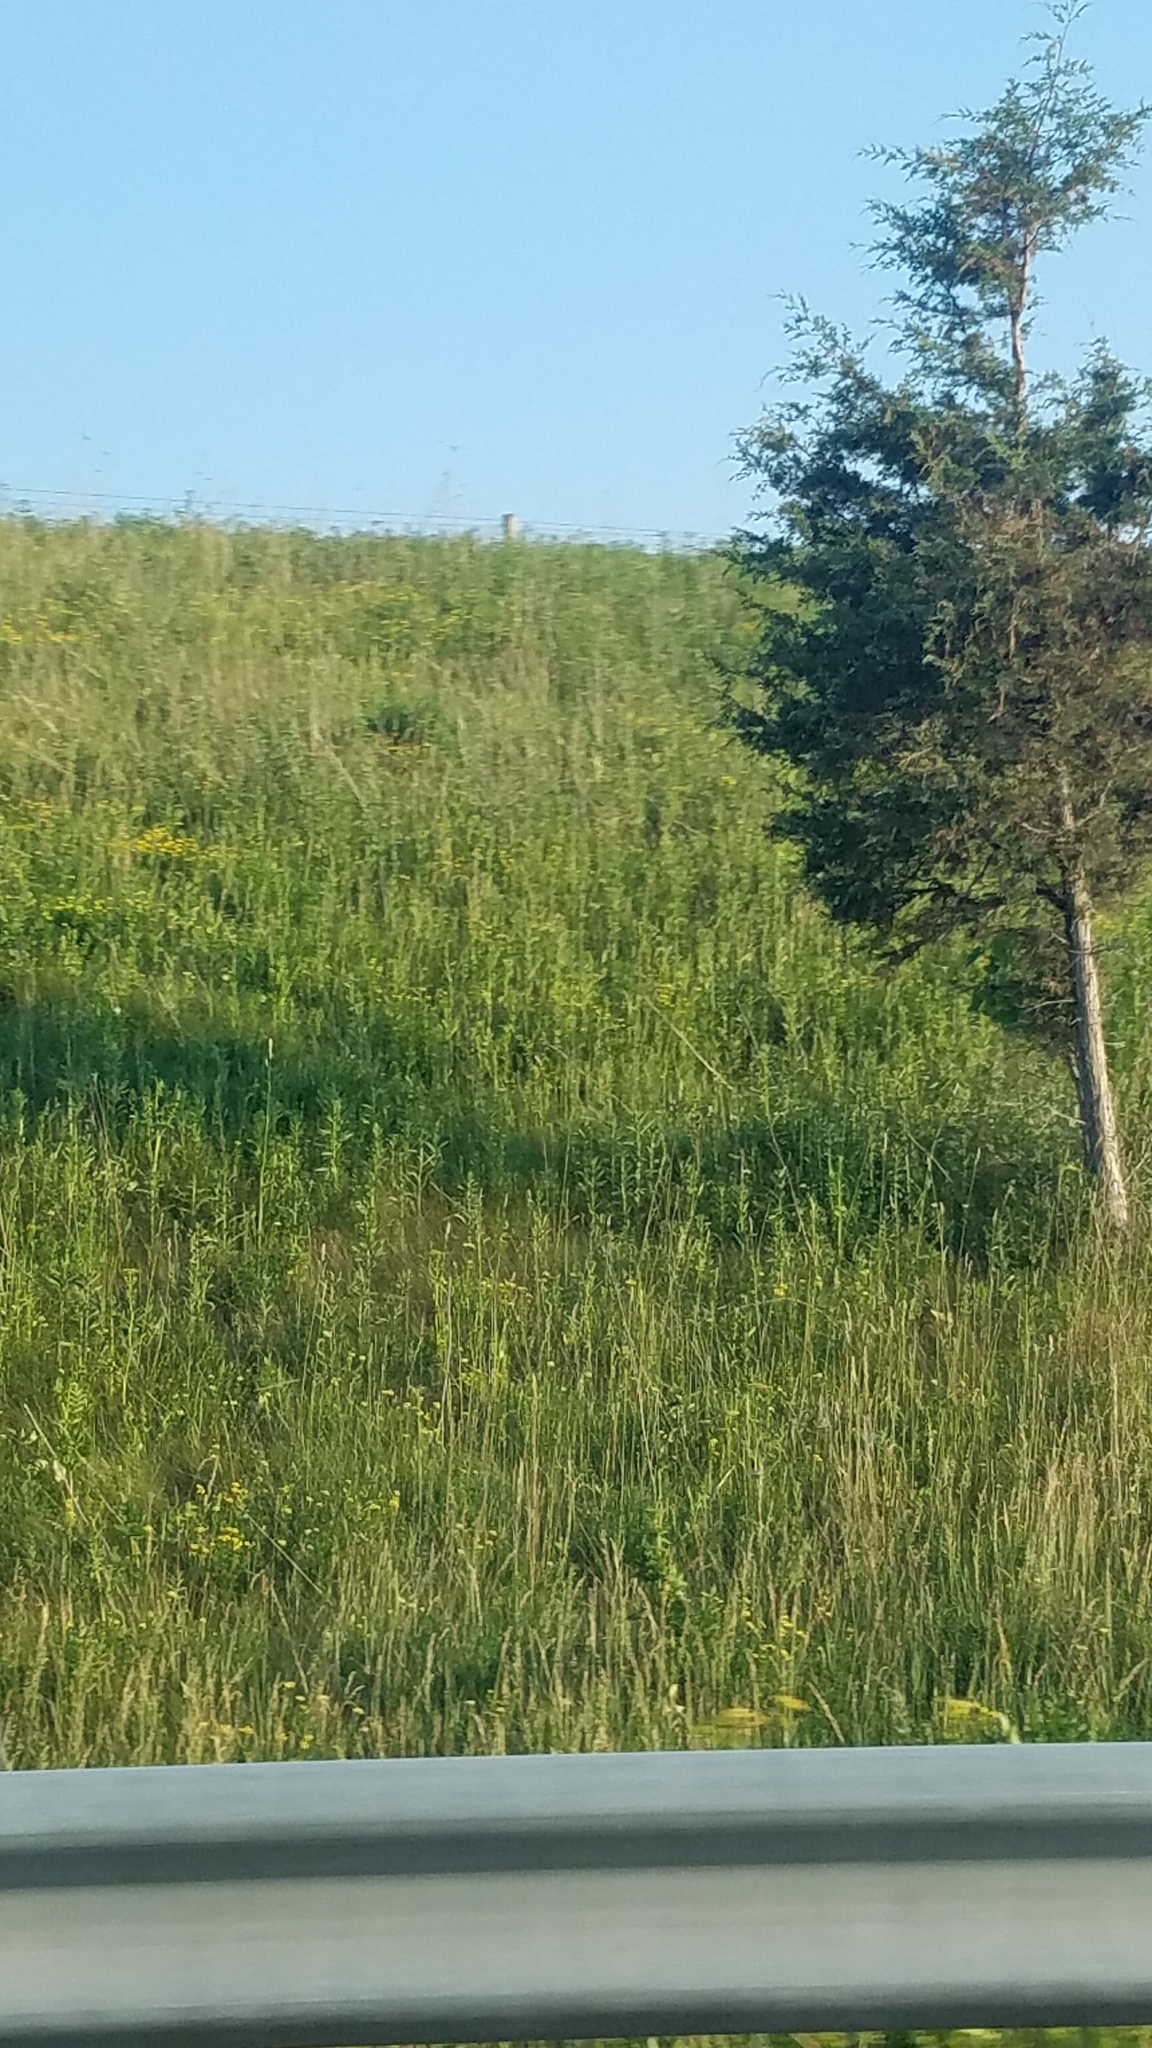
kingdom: Plantae
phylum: Tracheophyta
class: Pinopsida
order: Pinales
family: Cupressaceae
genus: Juniperus
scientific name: Juniperus virginiana
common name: Red juniper
